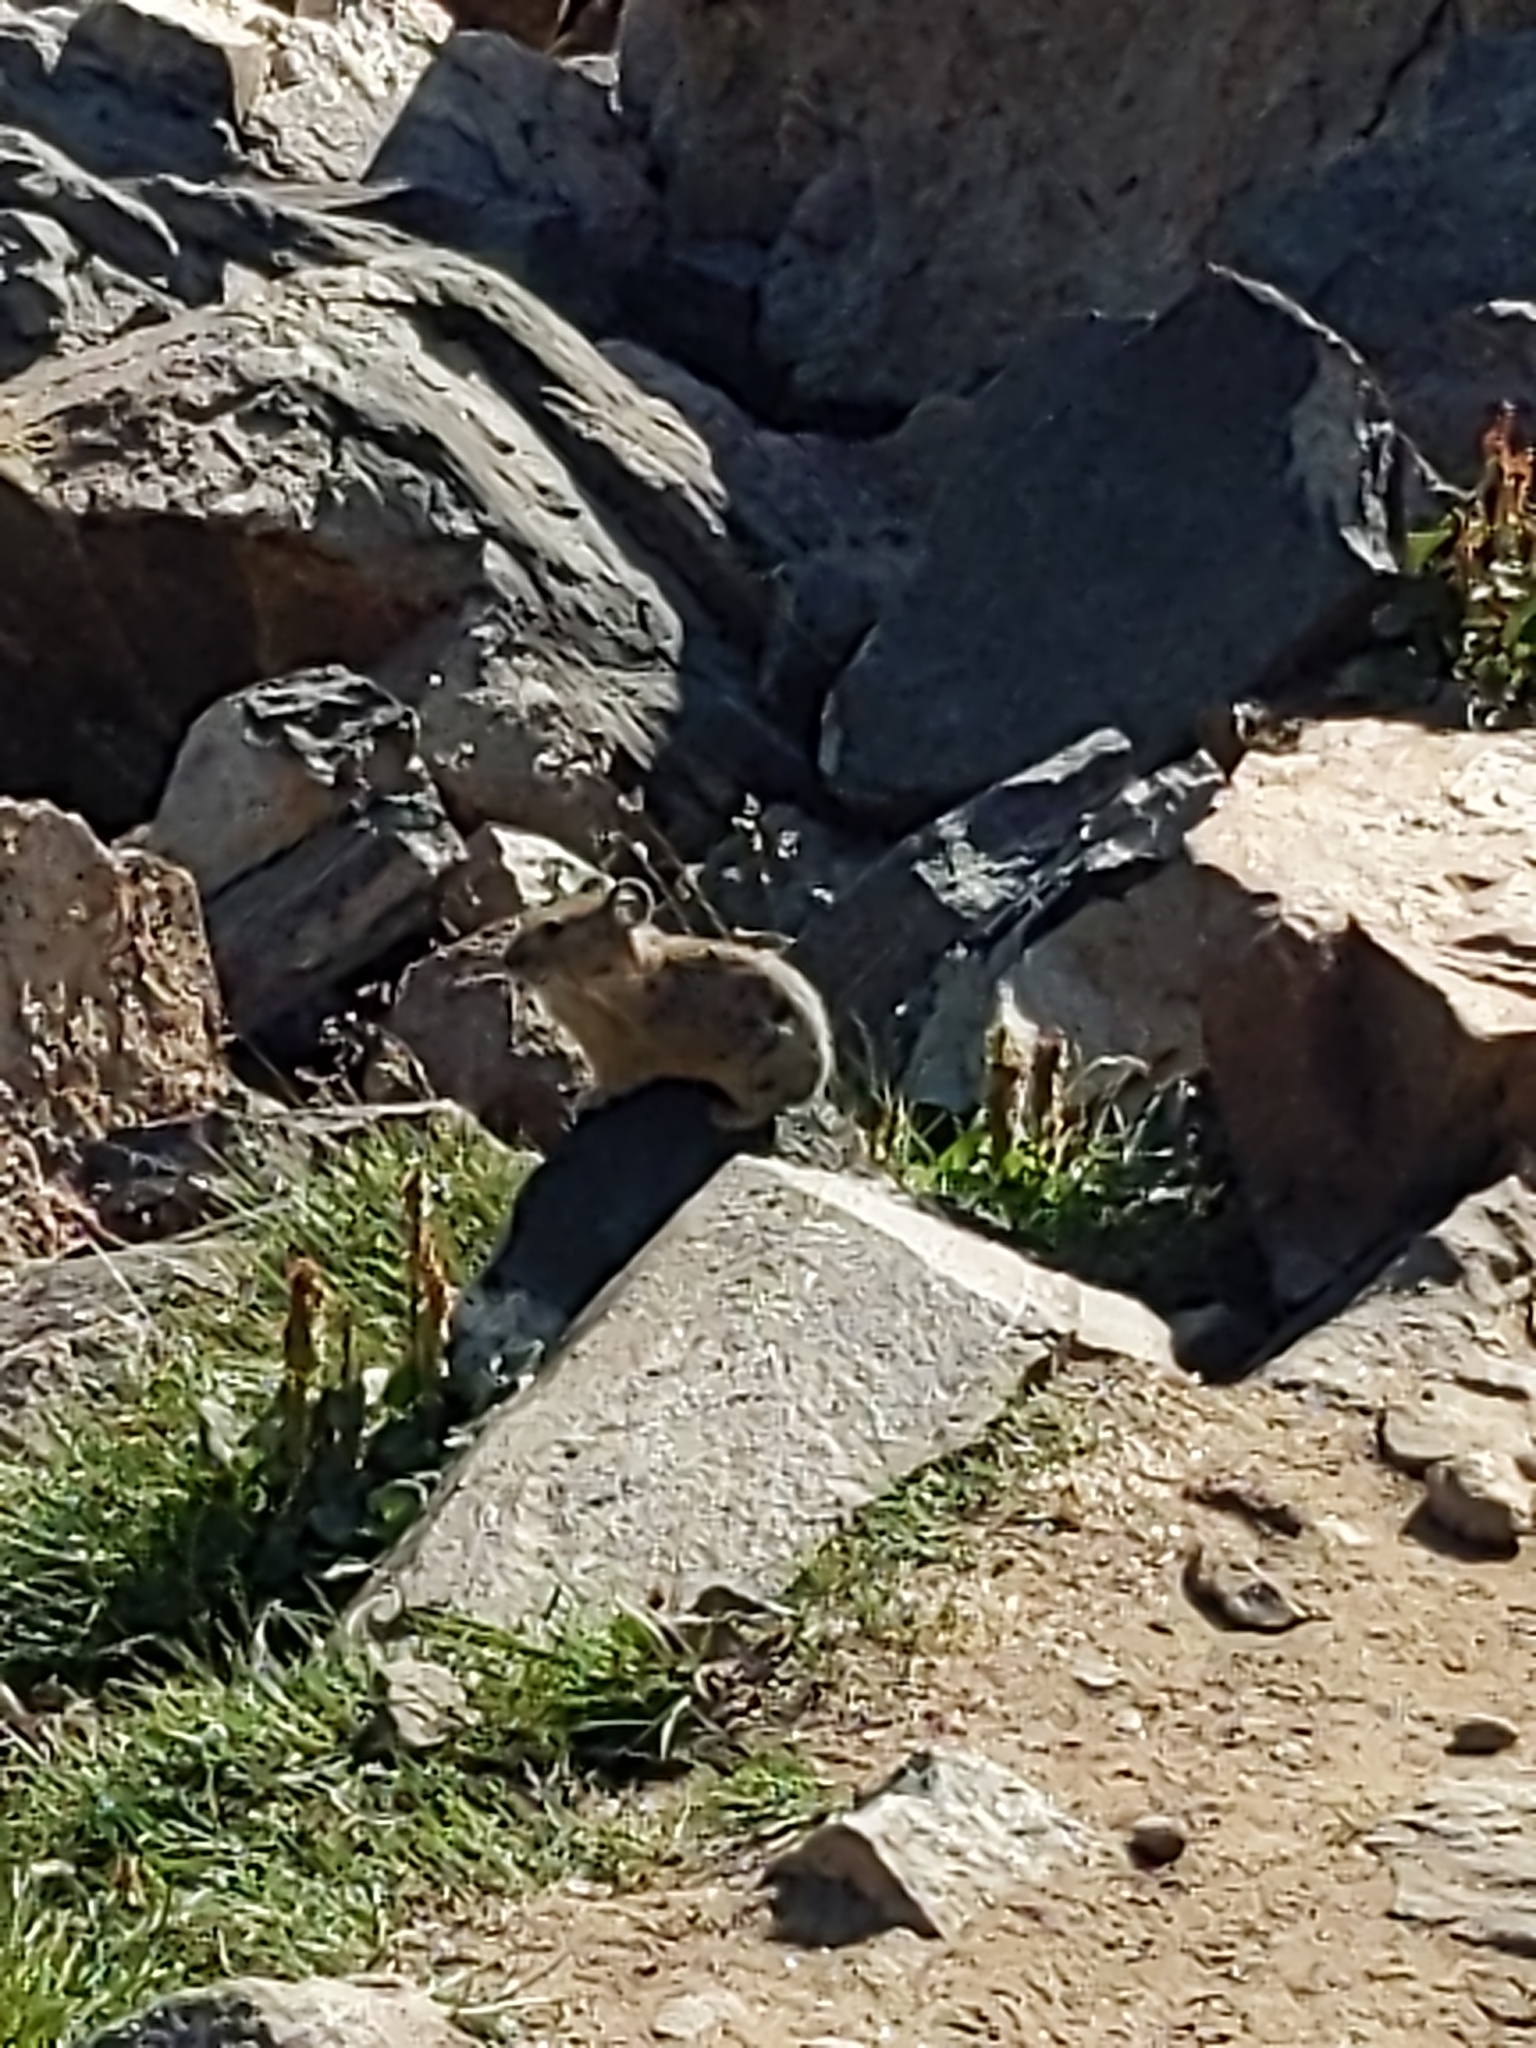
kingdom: Animalia
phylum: Chordata
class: Mammalia
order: Lagomorpha
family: Ochotonidae
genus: Ochotona
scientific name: Ochotona princeps
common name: American pika
